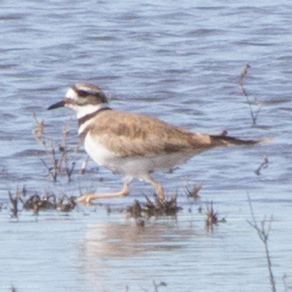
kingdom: Animalia
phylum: Chordata
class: Aves
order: Charadriiformes
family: Charadriidae
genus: Charadrius
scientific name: Charadrius vociferus
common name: Killdeer
